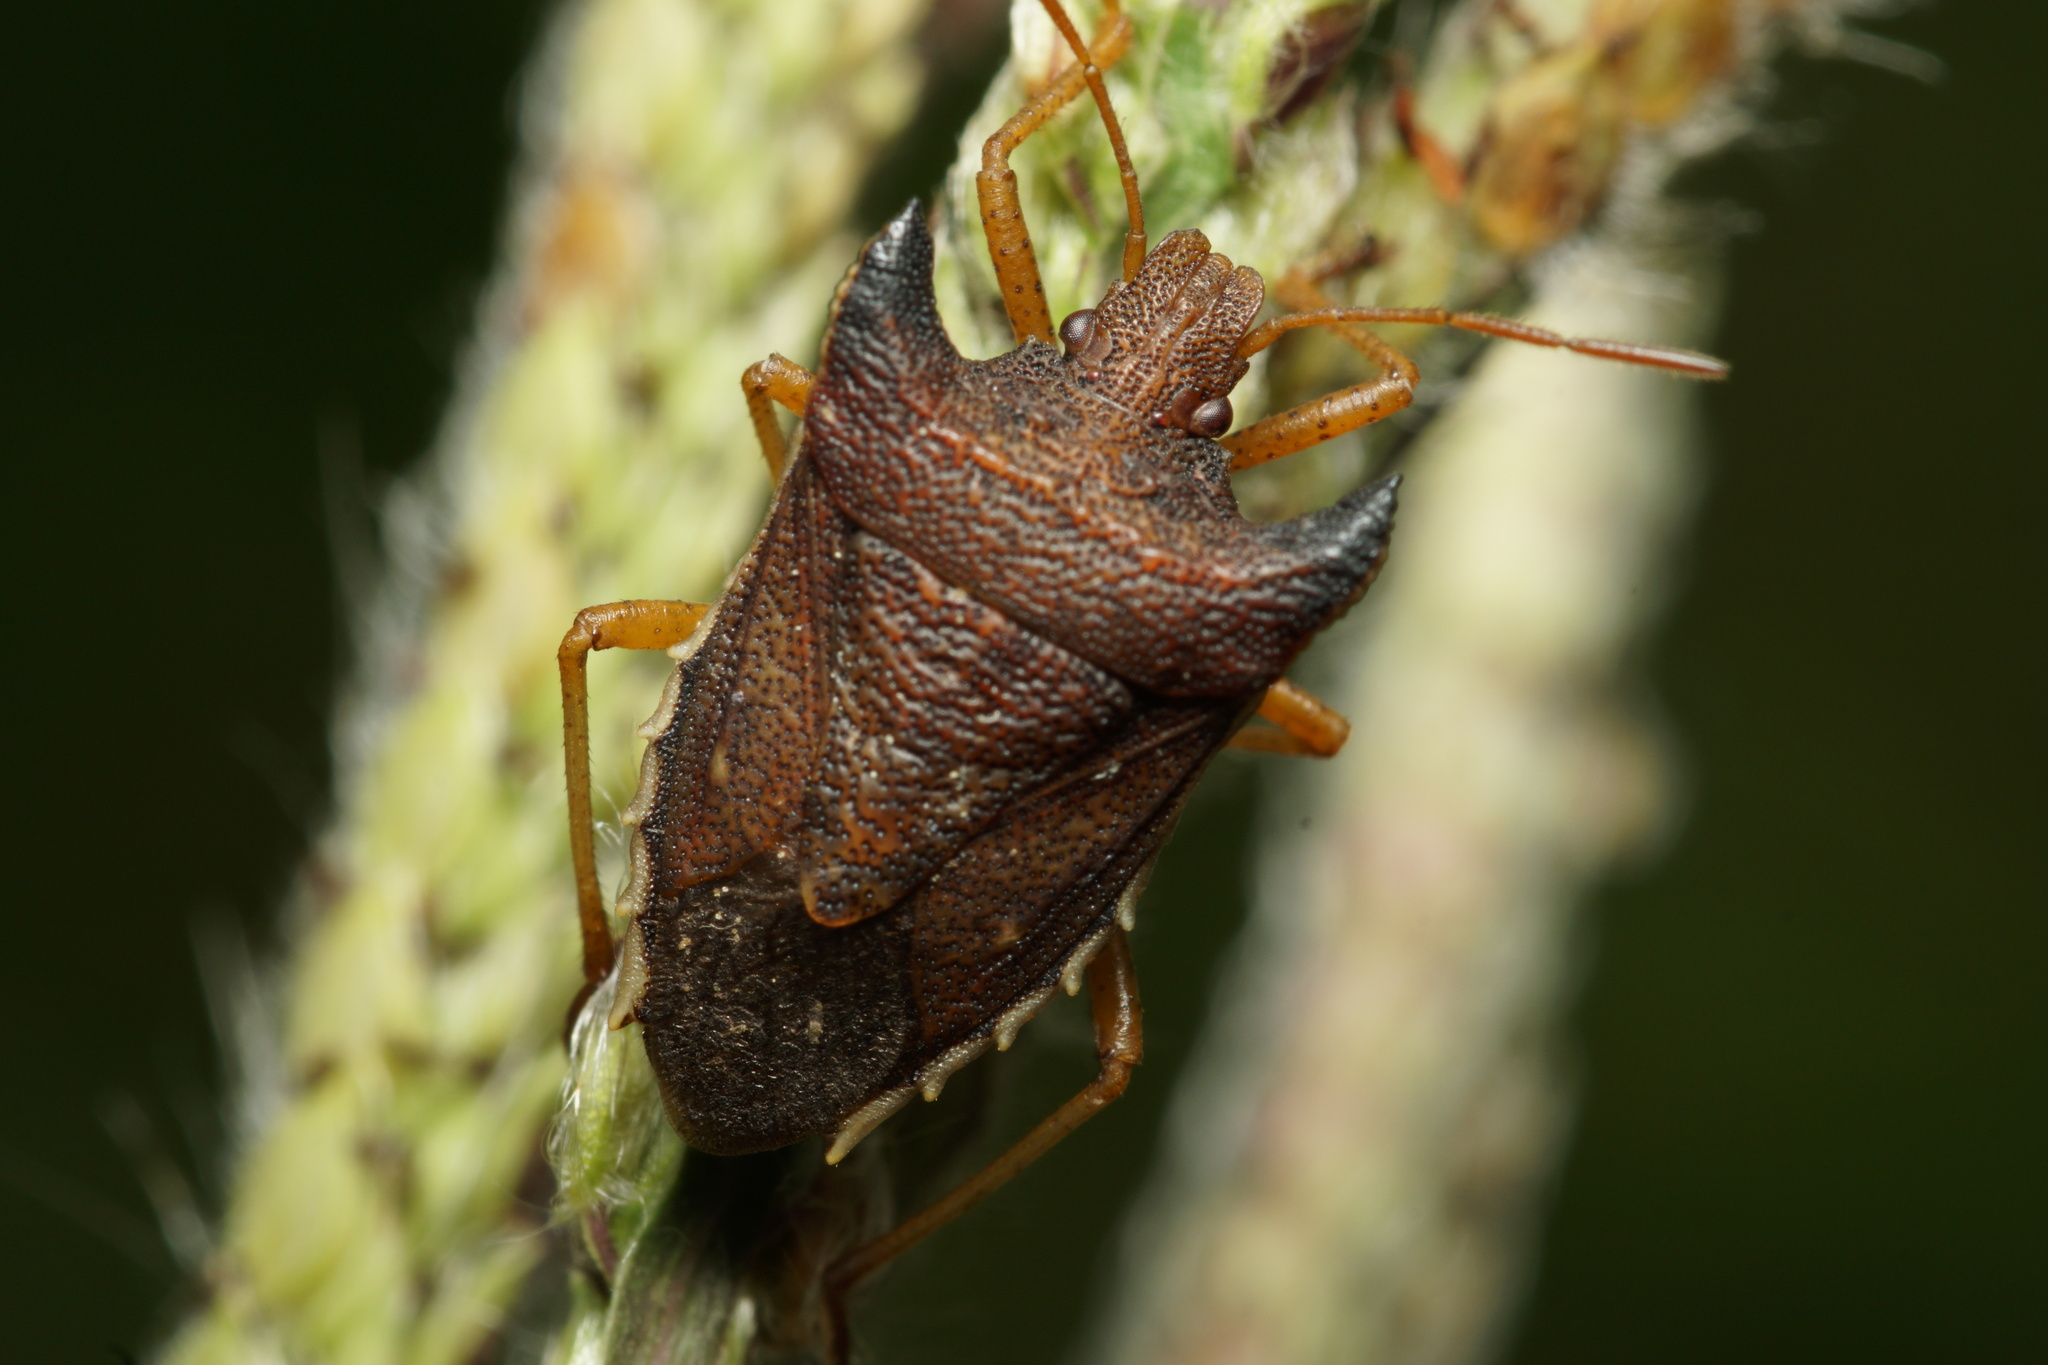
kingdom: Animalia
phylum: Arthropoda
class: Insecta
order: Hemiptera
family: Pentatomidae
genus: Caonabo
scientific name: Caonabo pseudoscylax
